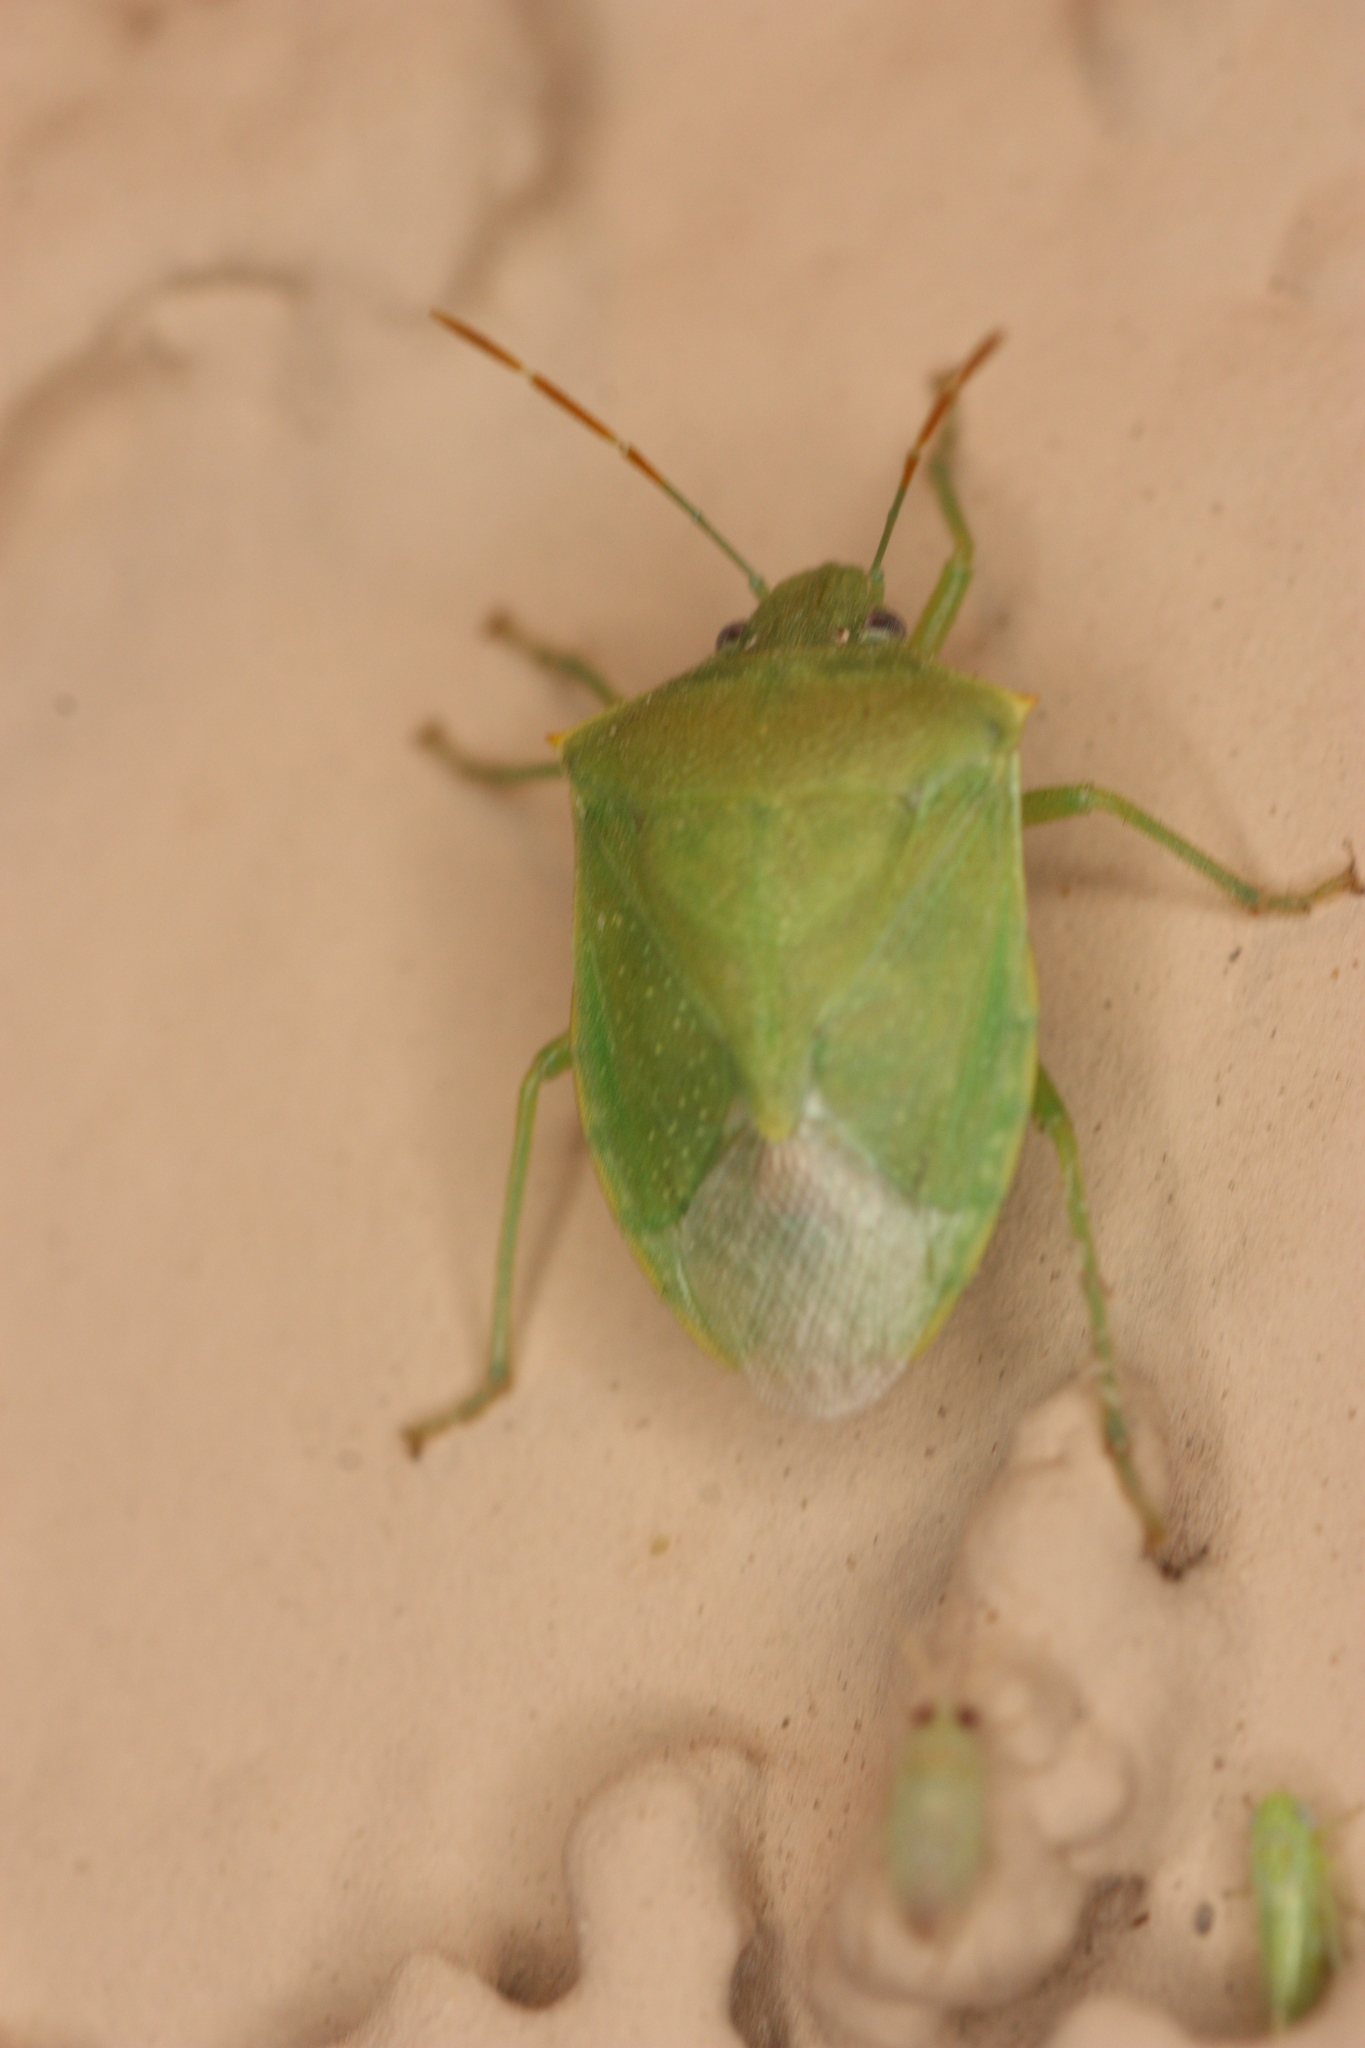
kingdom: Animalia
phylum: Arthropoda
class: Insecta
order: Hemiptera
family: Pentatomidae
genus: Thyanta
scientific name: Thyanta accerra
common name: Stink bug
